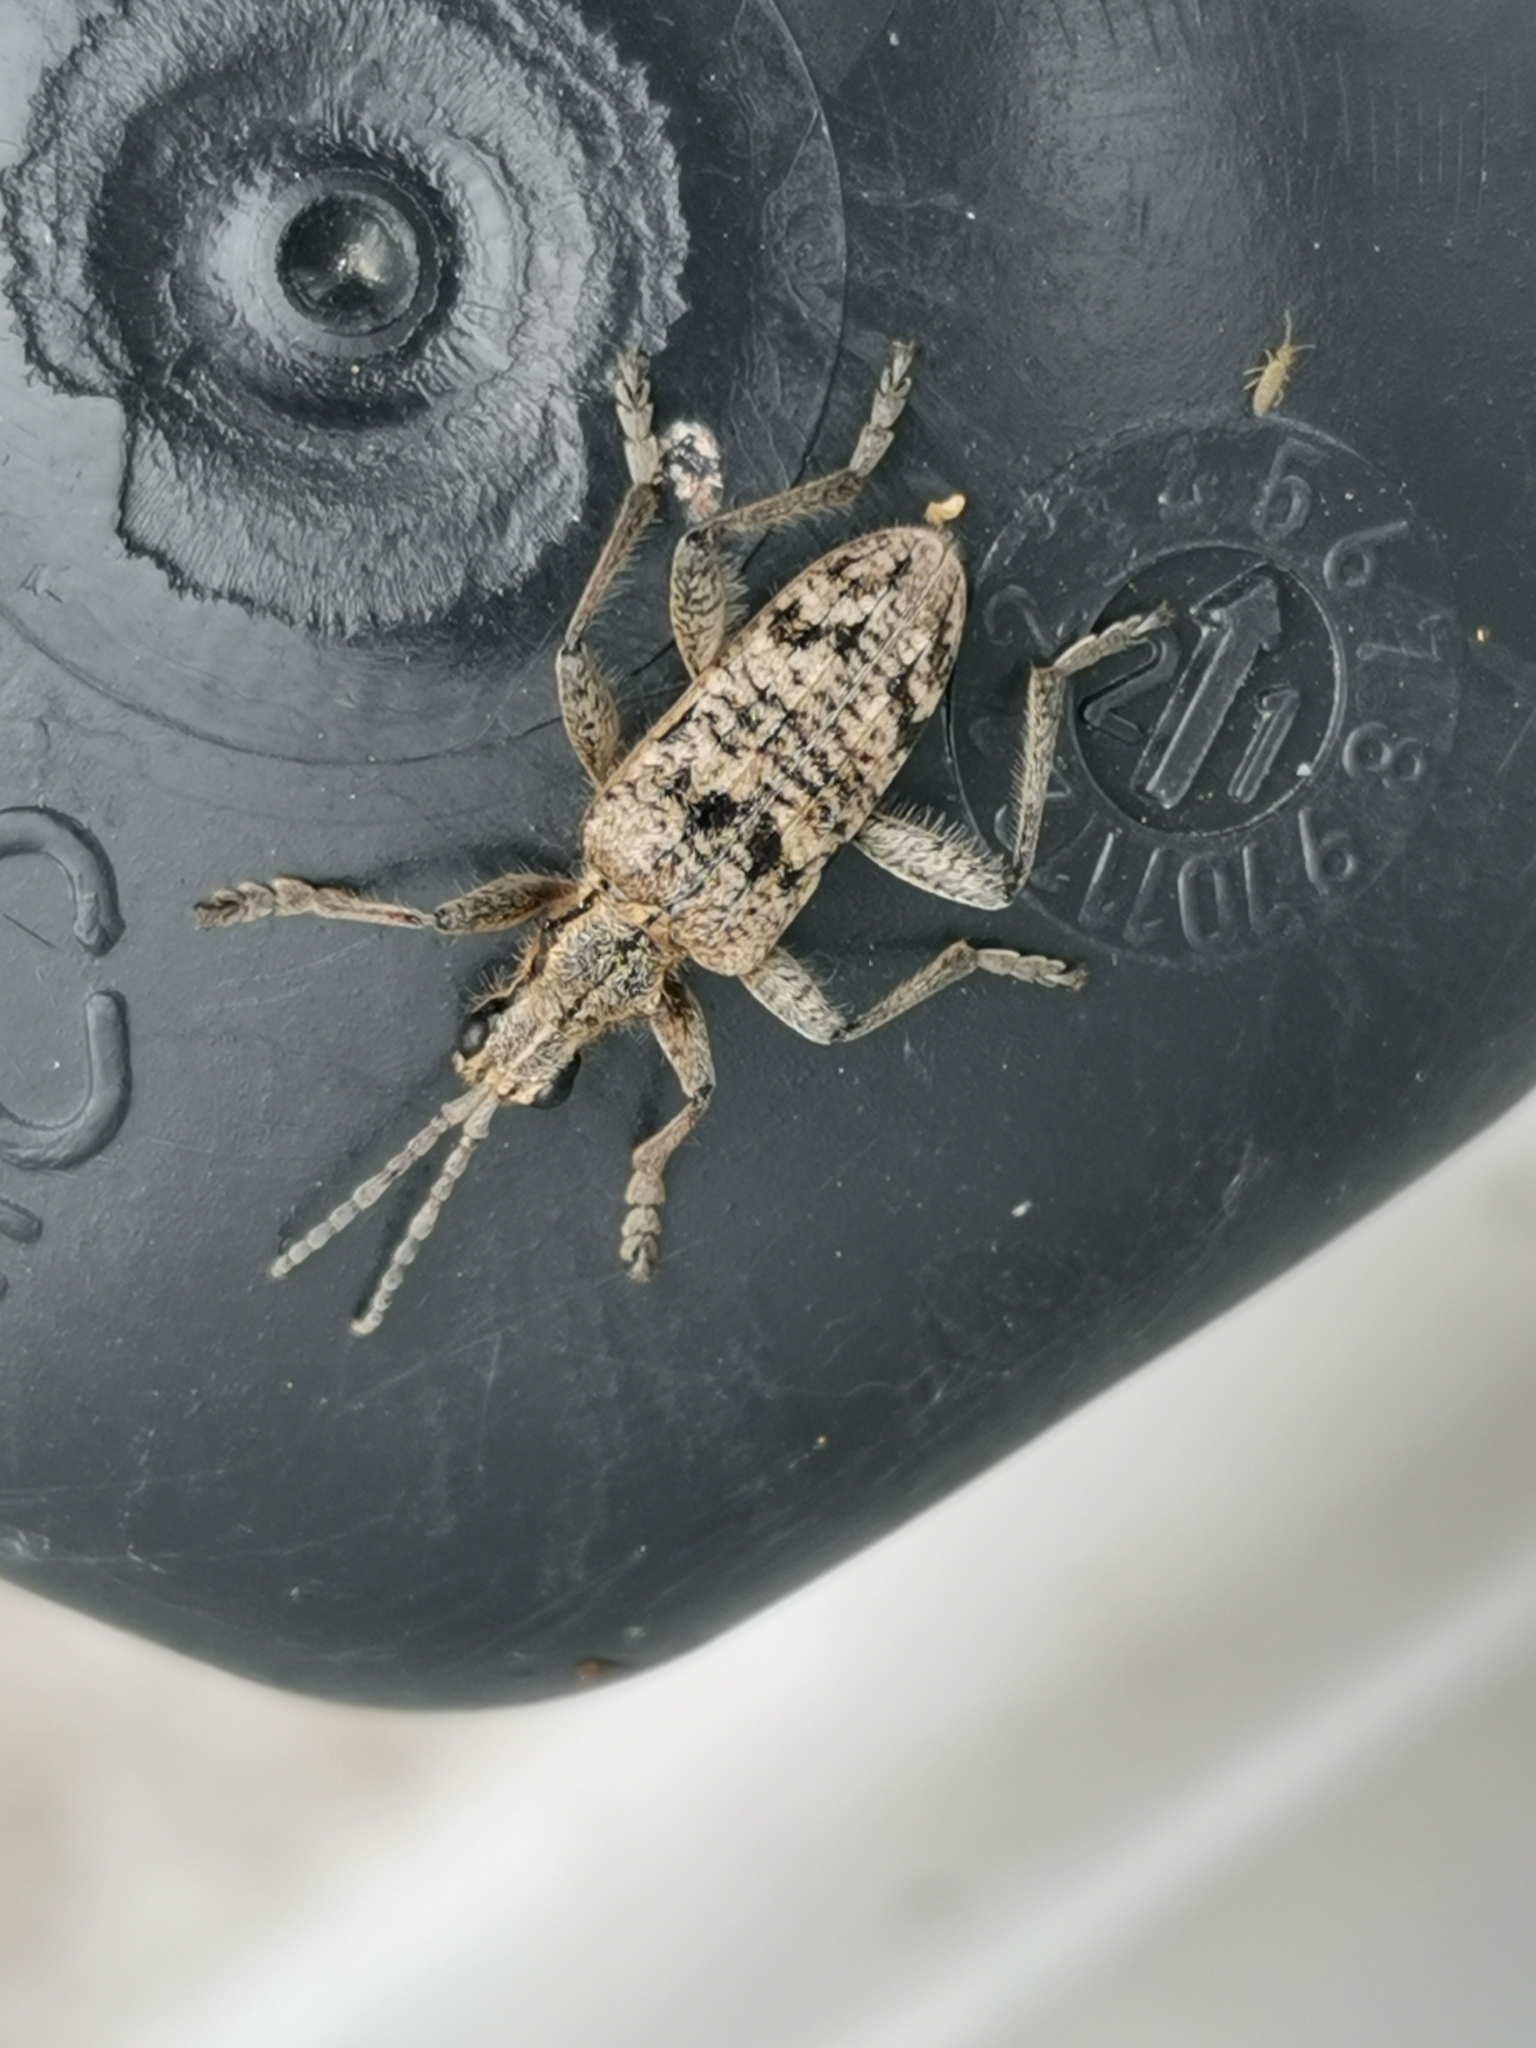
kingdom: Animalia
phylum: Arthropoda
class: Insecta
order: Coleoptera
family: Cerambycidae
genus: Rhagium
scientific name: Rhagium inquisitor
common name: Ribbed pine borer
